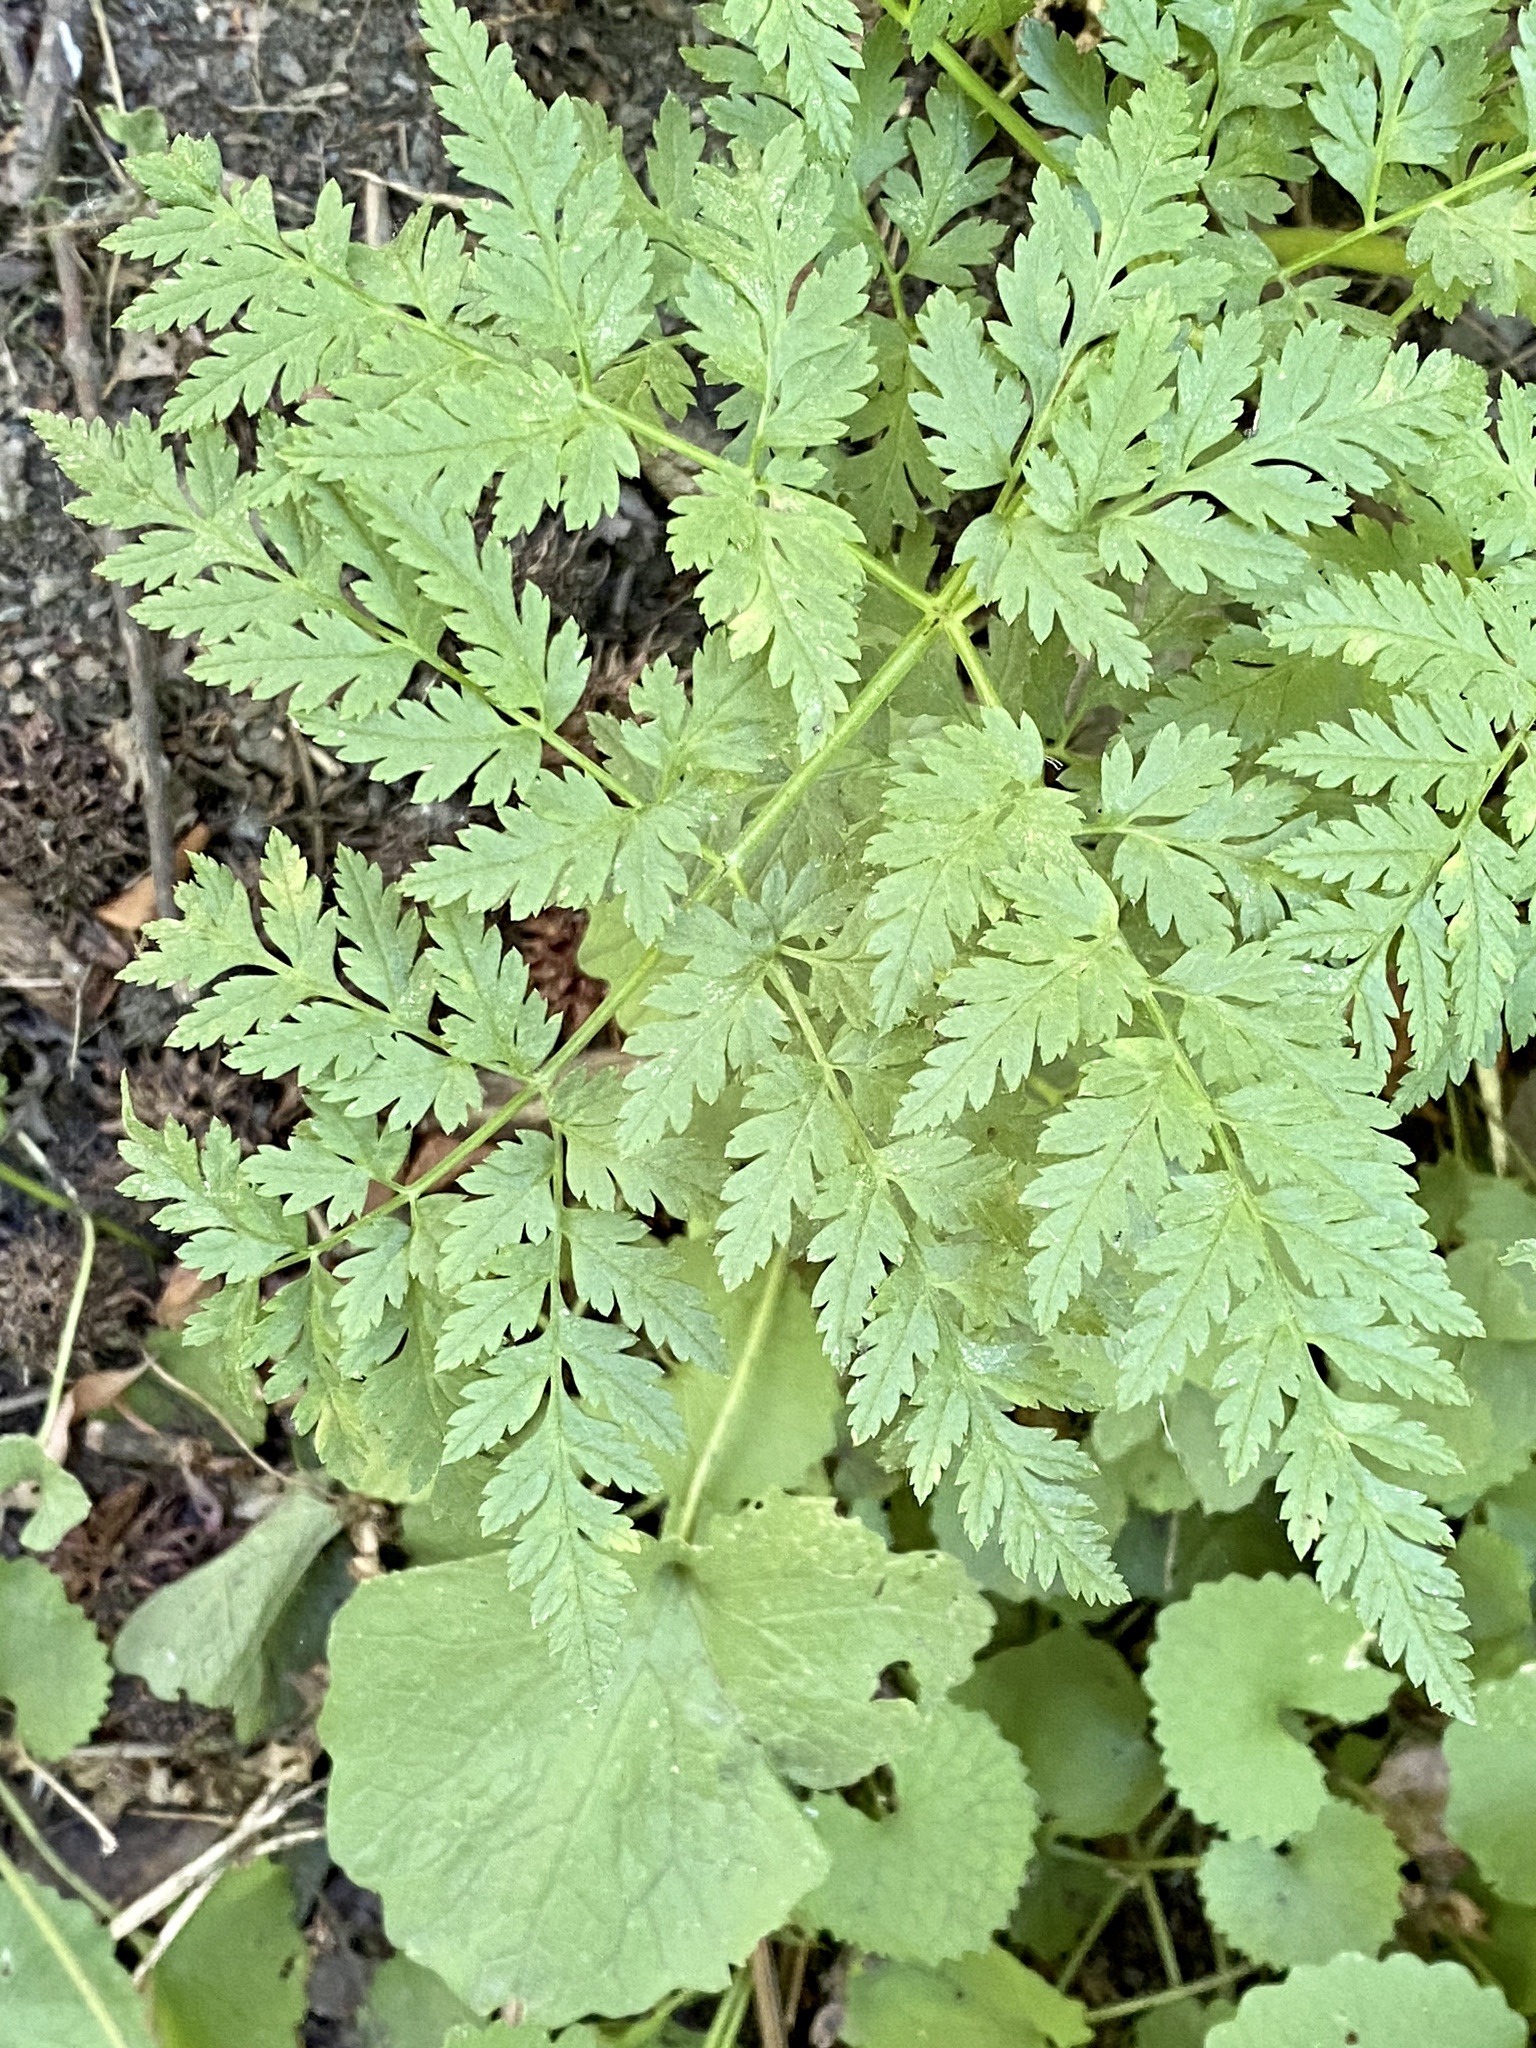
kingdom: Plantae
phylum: Tracheophyta
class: Magnoliopsida
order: Apiales
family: Apiaceae
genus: Anthriscus
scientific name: Anthriscus sylvestris
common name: Cow parsley
